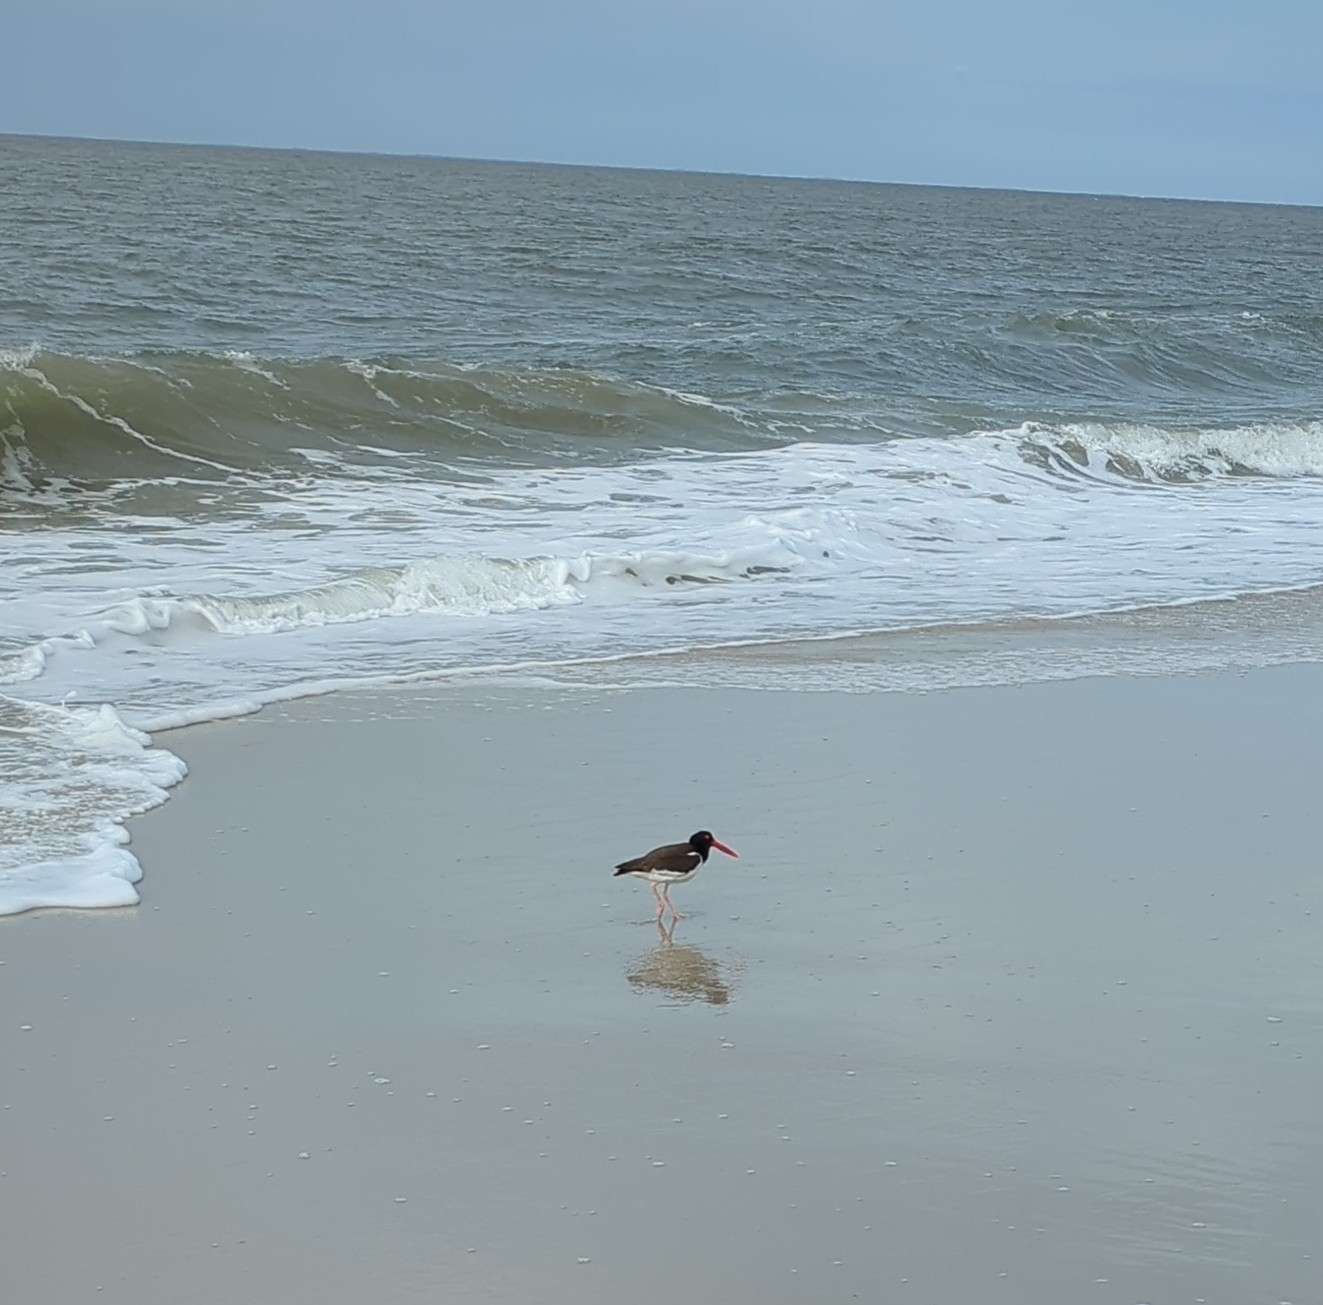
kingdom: Animalia
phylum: Chordata
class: Aves
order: Charadriiformes
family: Haematopodidae
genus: Haematopus
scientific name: Haematopus palliatus
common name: American oystercatcher
